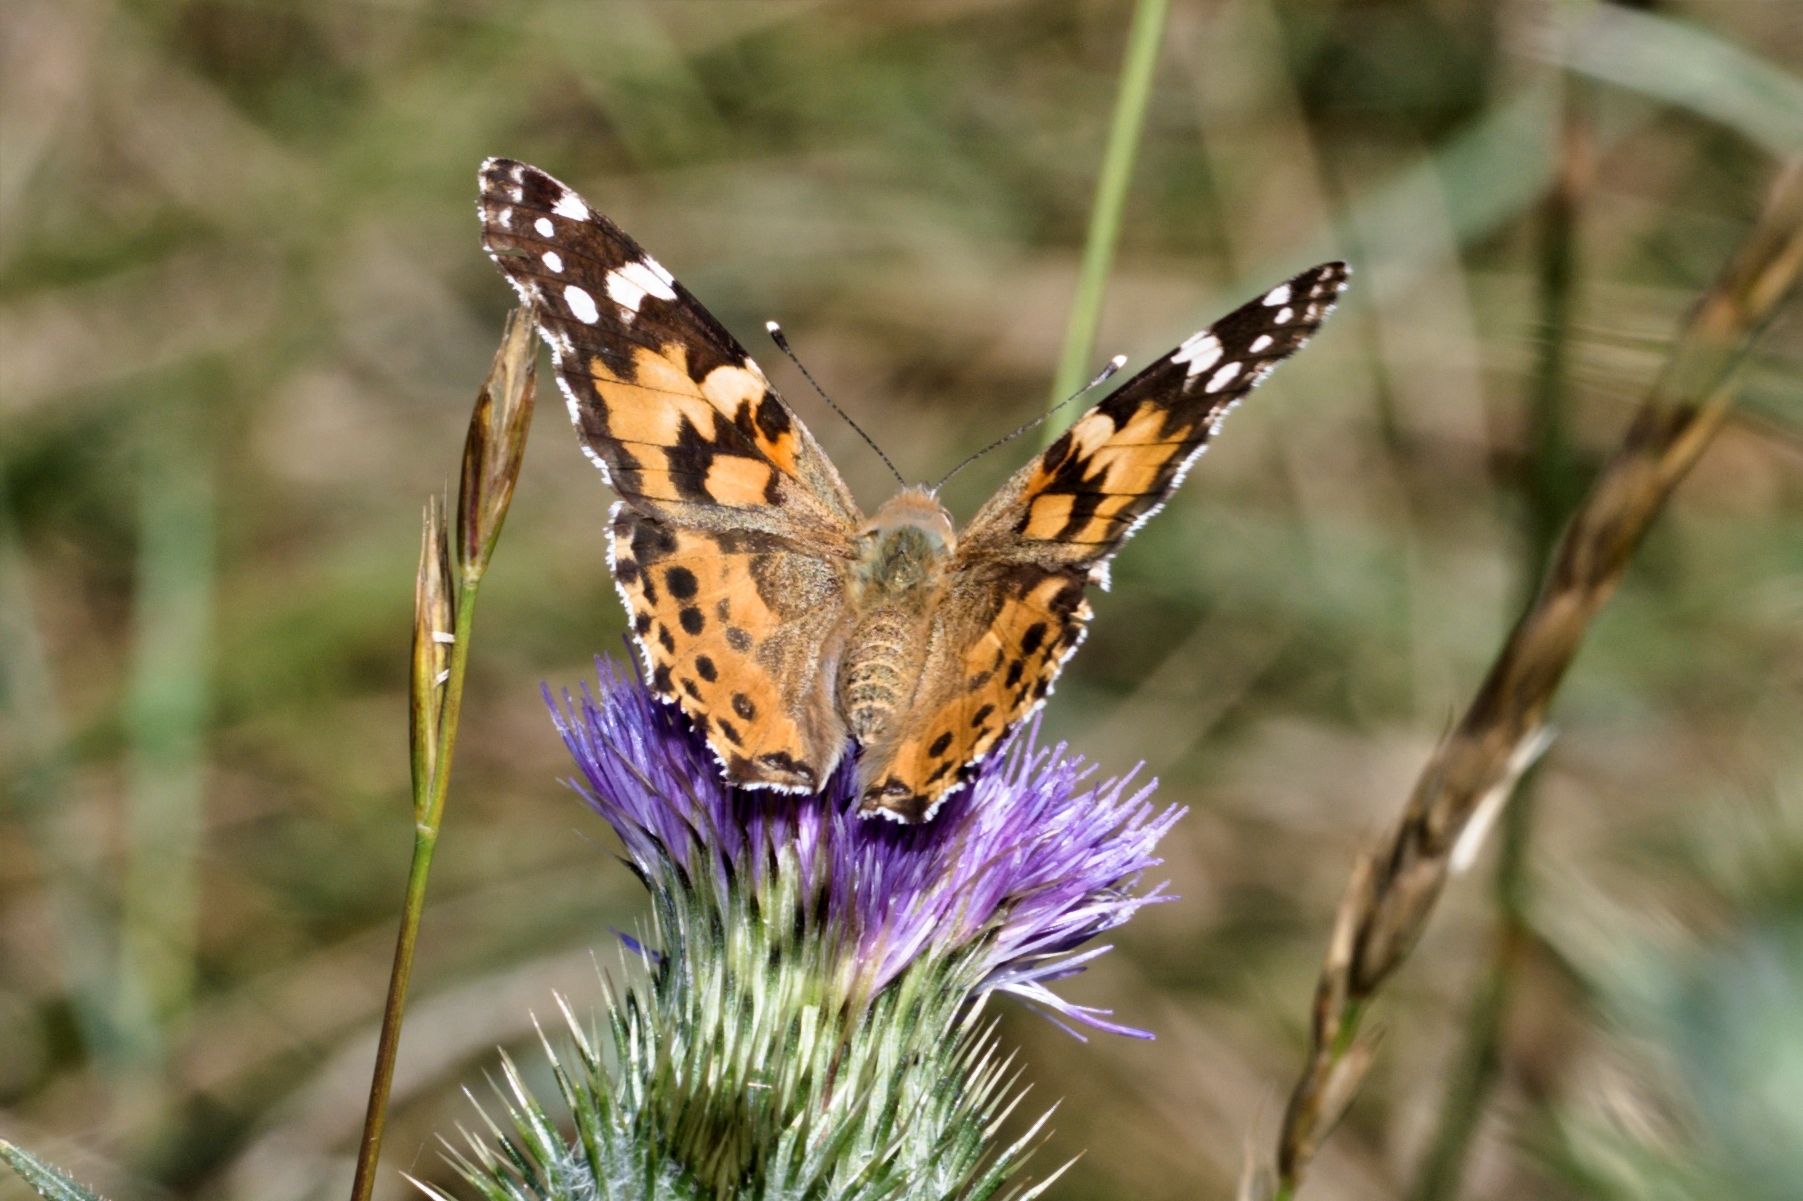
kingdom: Animalia
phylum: Arthropoda
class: Insecta
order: Lepidoptera
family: Nymphalidae
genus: Vanessa
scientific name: Vanessa cardui
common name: Painted lady
